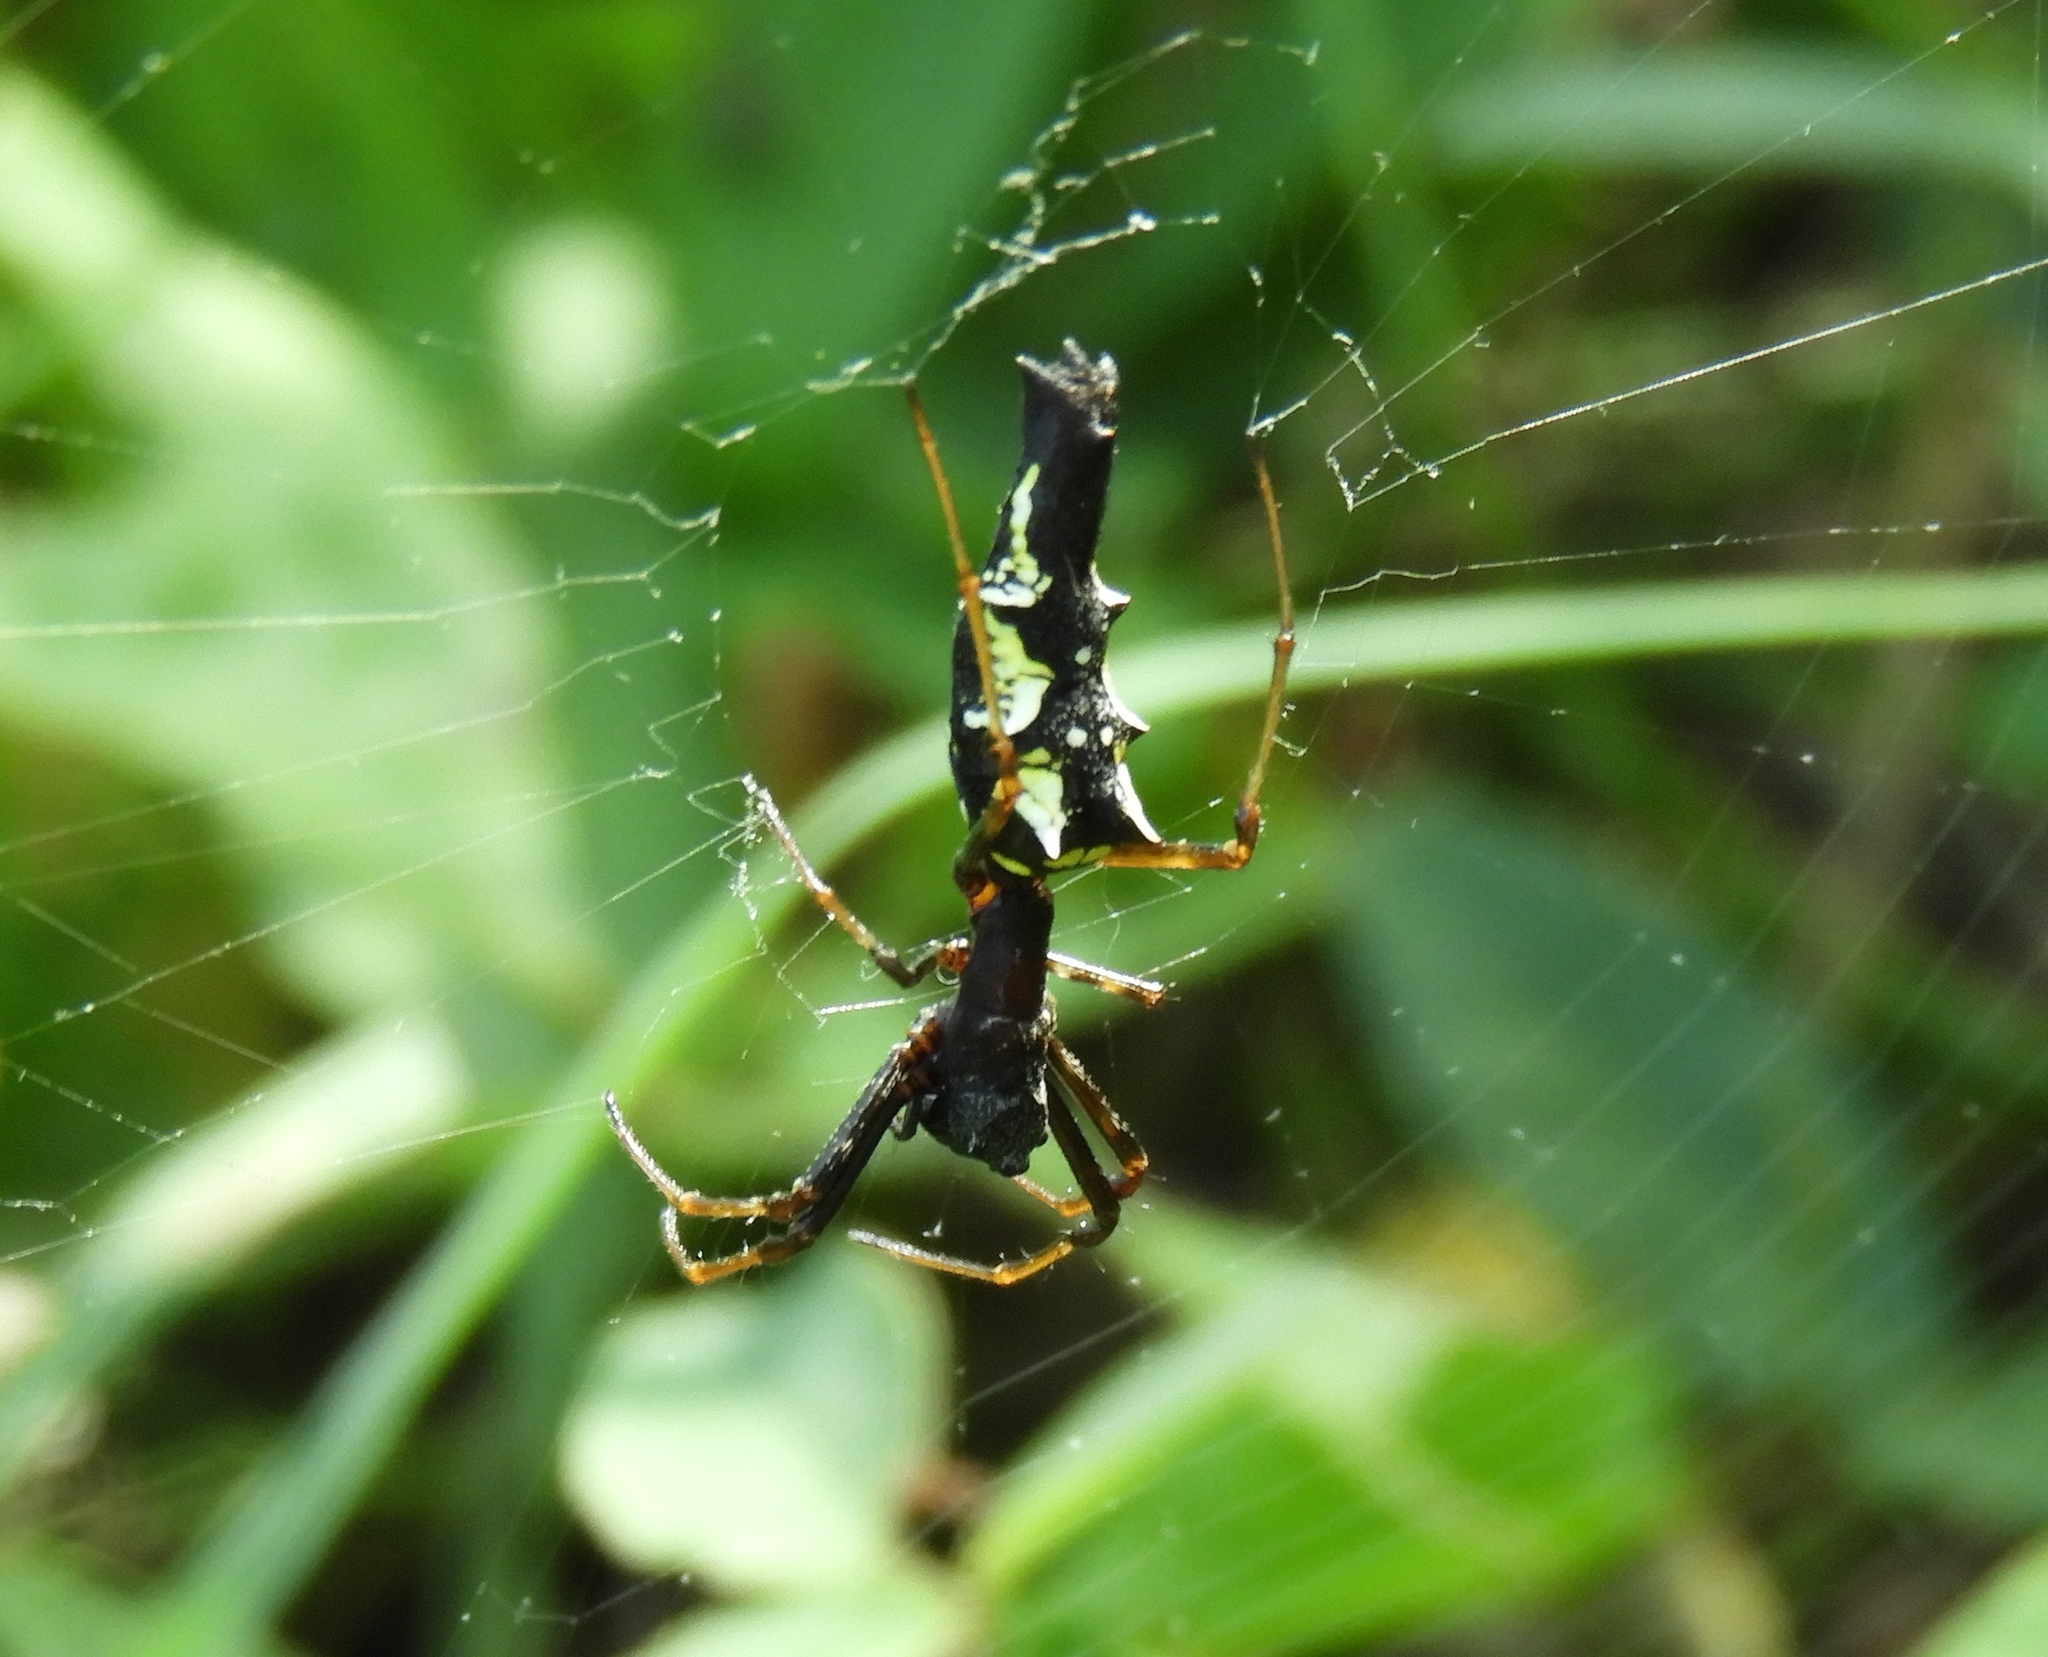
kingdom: Animalia
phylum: Arthropoda
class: Arachnida
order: Araneae
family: Araneidae
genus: Edricus
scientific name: Edricus productus
